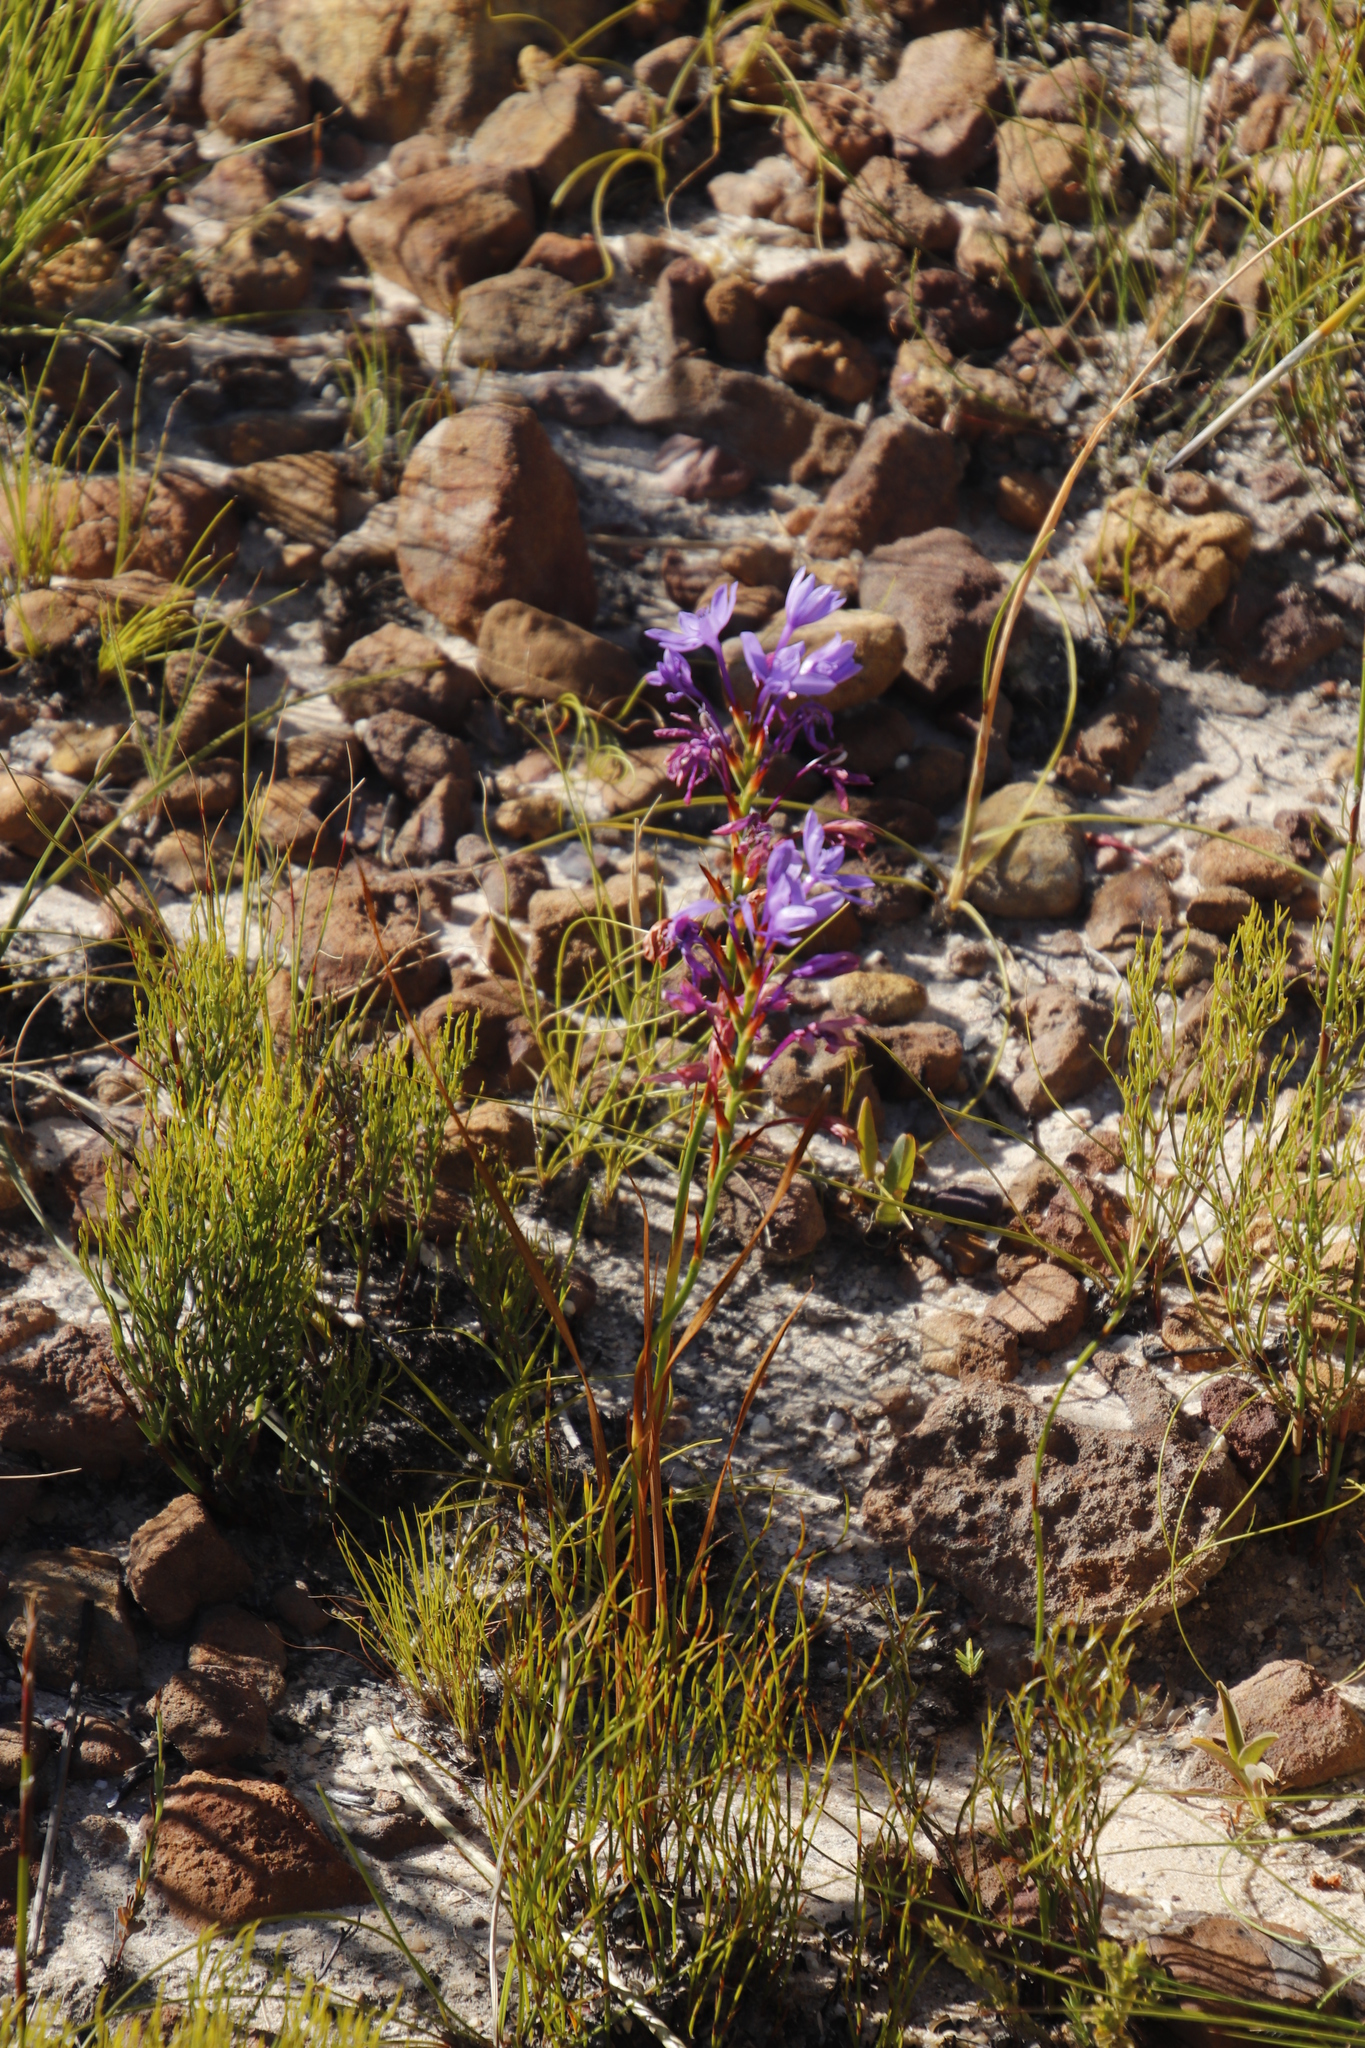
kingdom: Plantae
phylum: Tracheophyta
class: Liliopsida
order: Asparagales
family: Iridaceae
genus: Thereianthus
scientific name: Thereianthus spicatus
